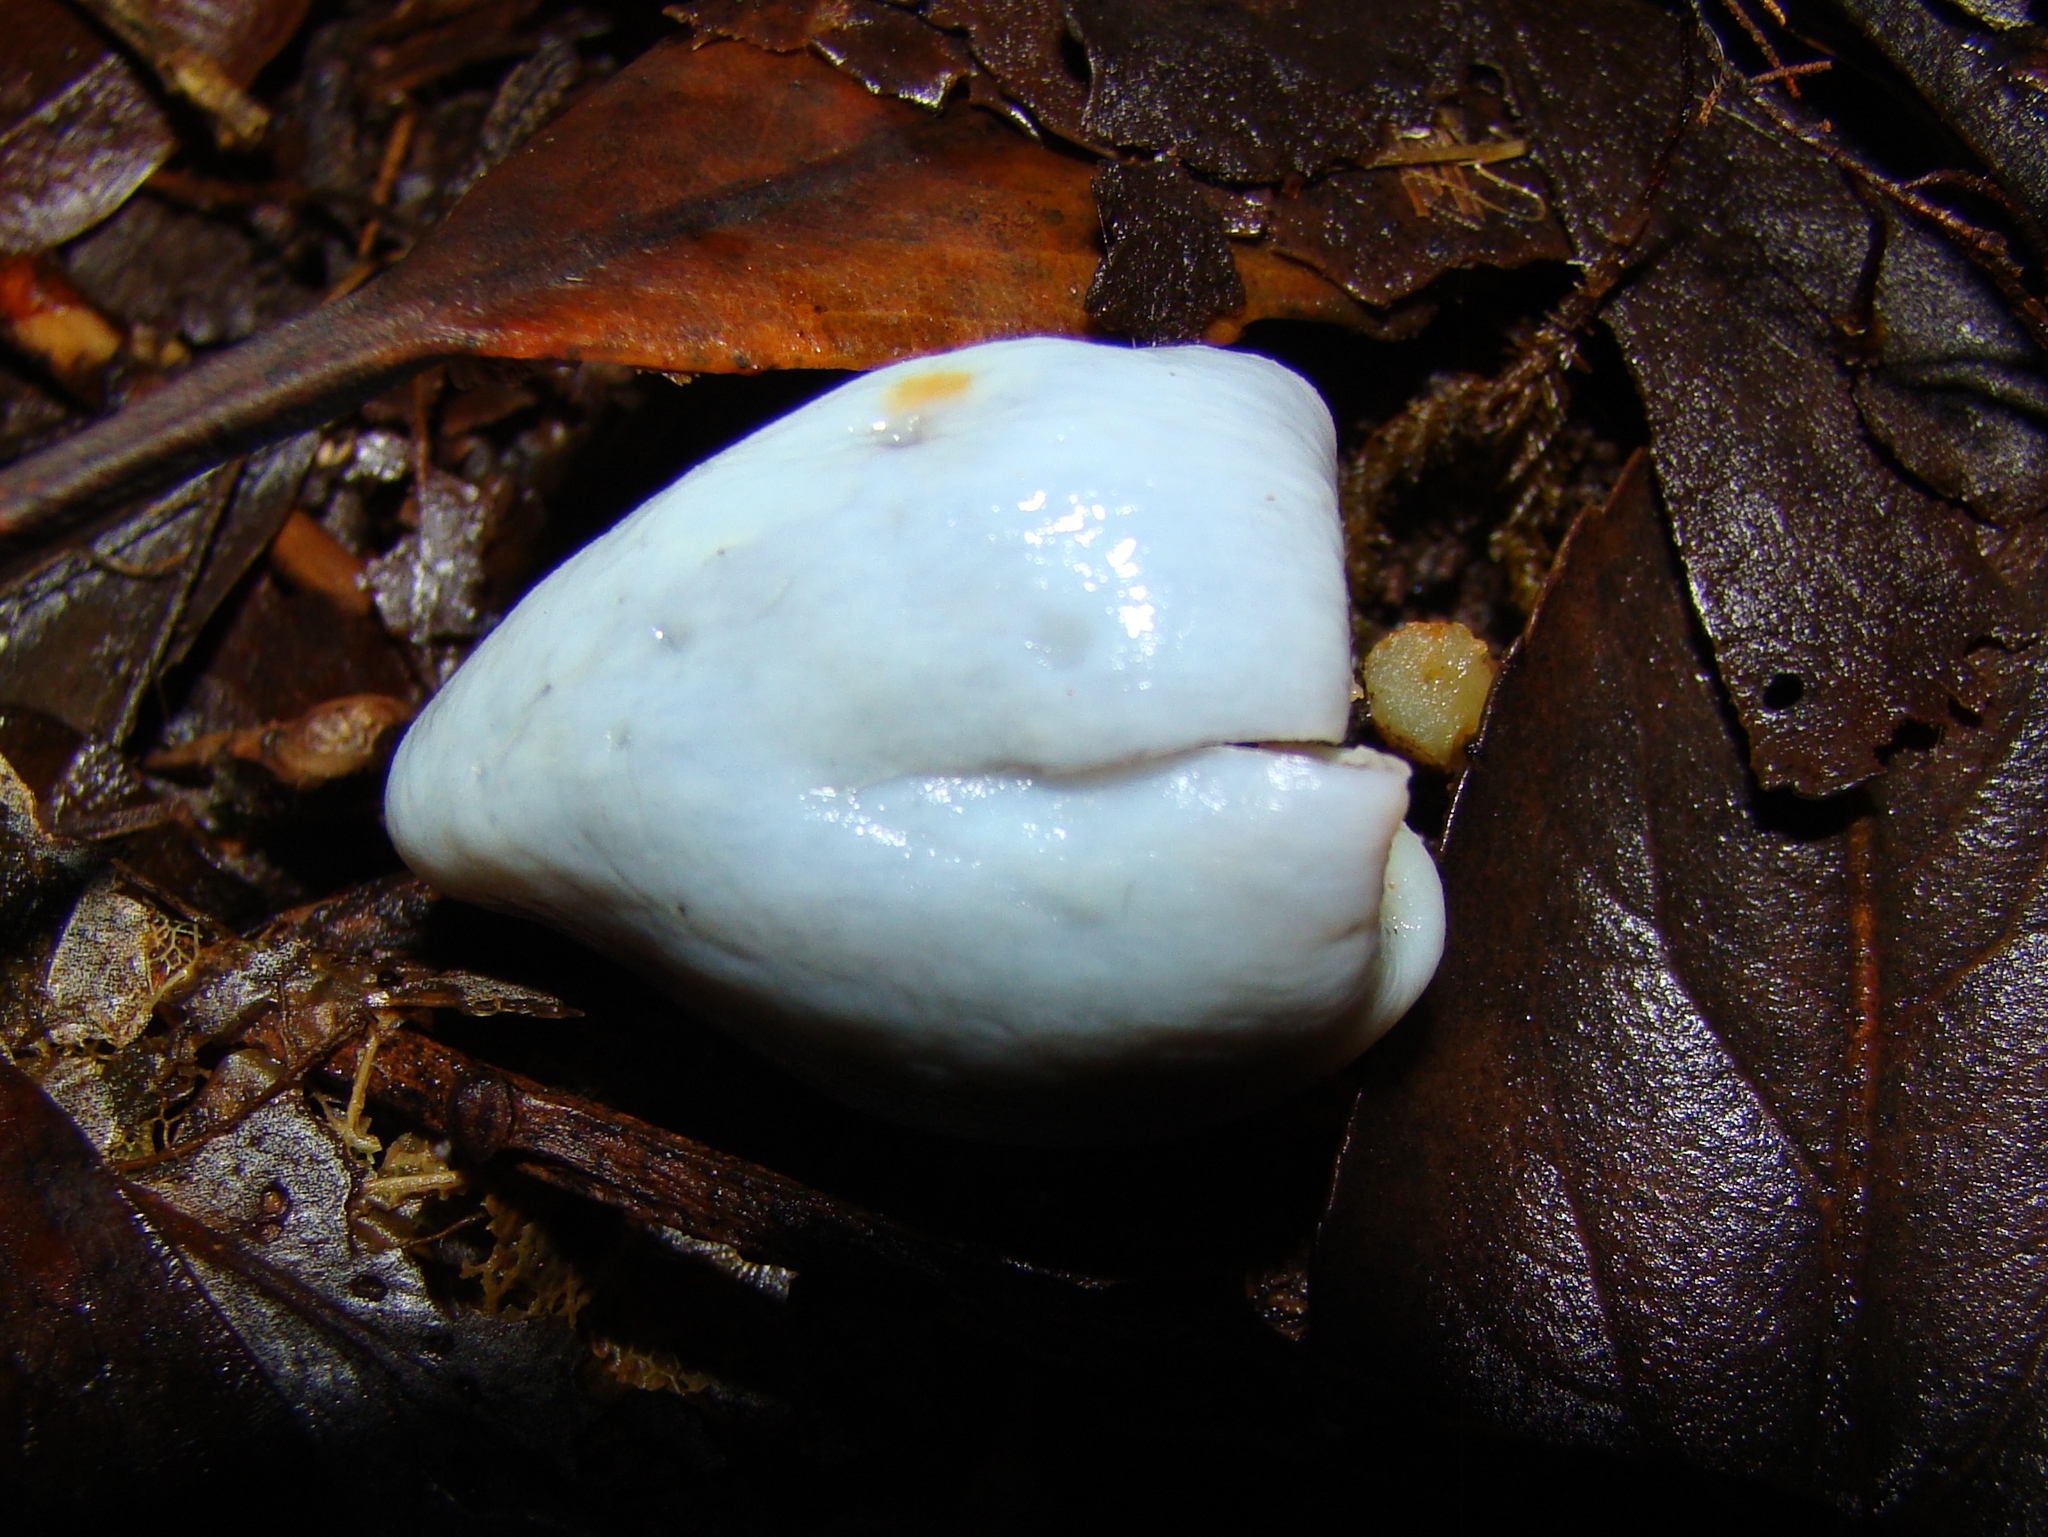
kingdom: Fungi
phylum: Basidiomycota
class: Agaricomycetes
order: Agaricales
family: Agaricaceae
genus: Clavogaster
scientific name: Clavogaster virescens
